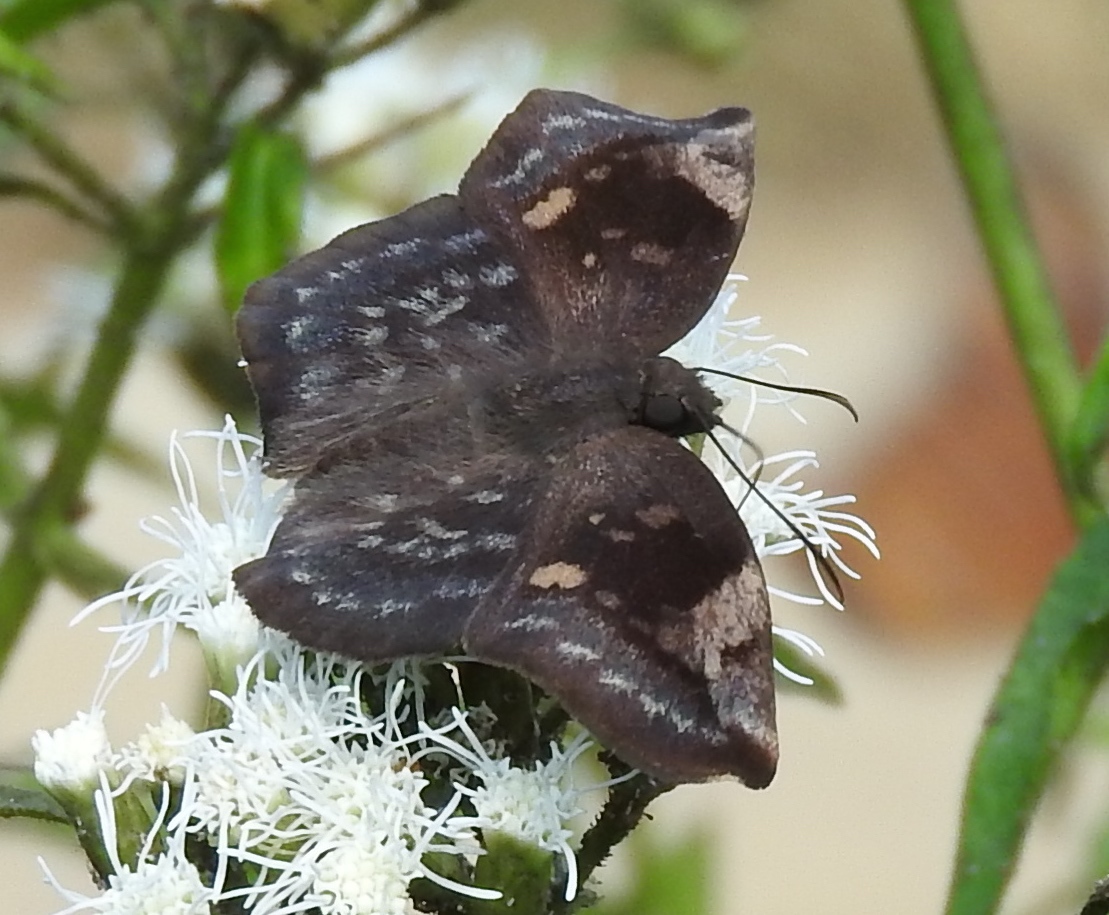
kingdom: Animalia
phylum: Arthropoda
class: Insecta
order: Lepidoptera
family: Hesperiidae
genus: Achlyodes
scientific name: Achlyodes thraso
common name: Sickle-winged skipper
